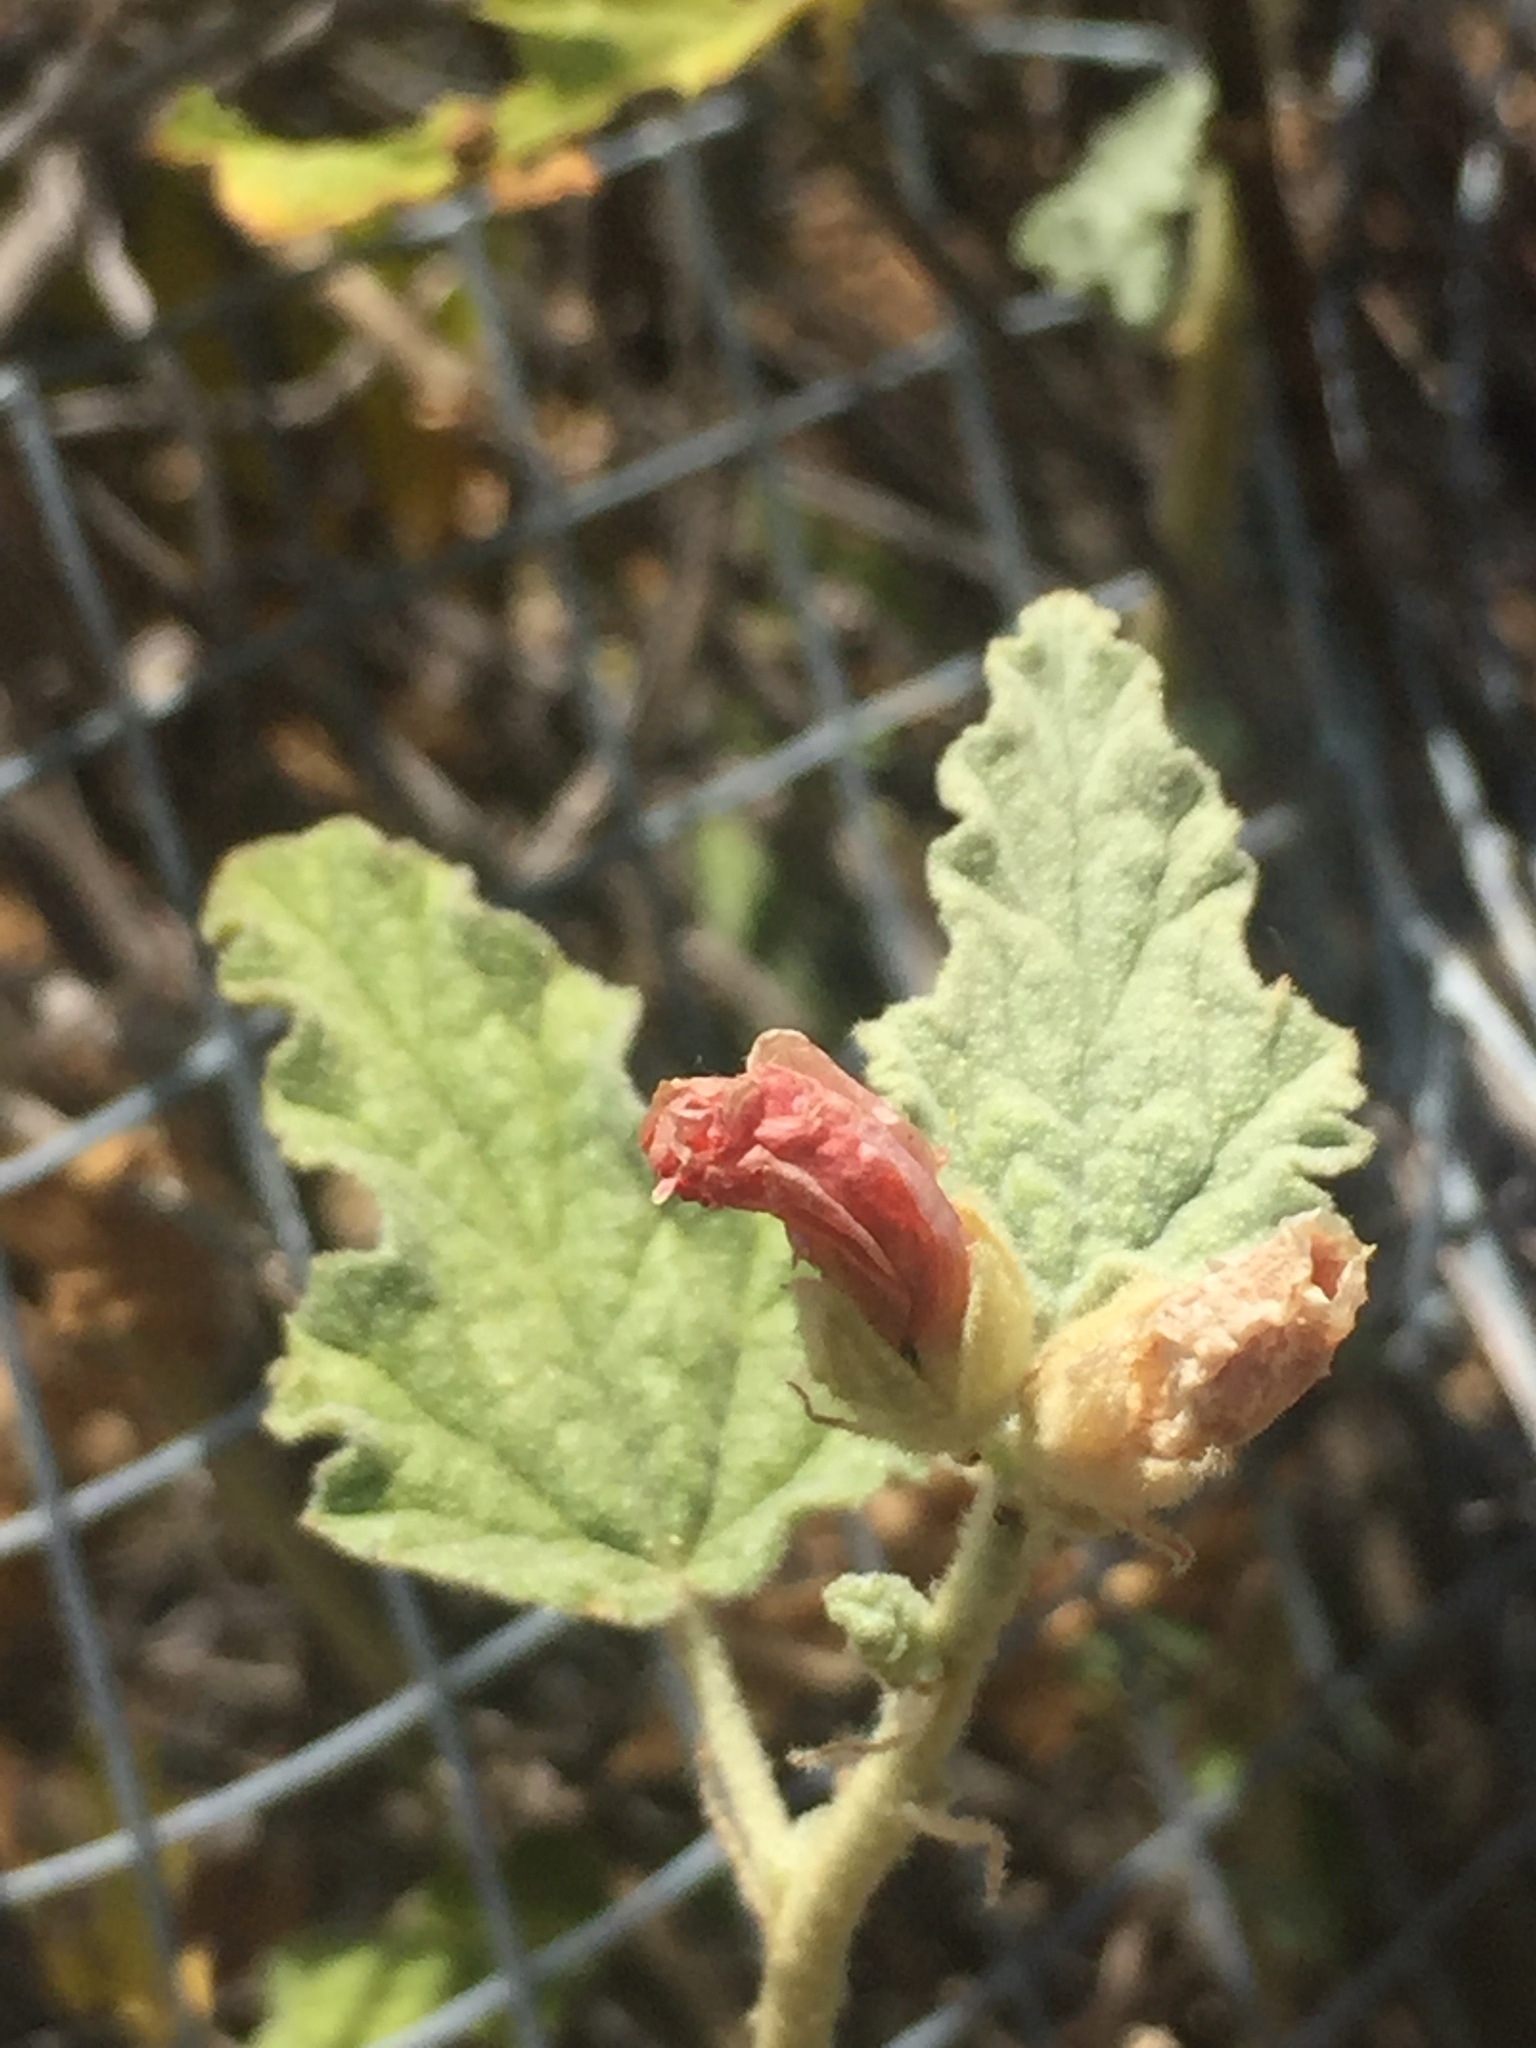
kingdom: Plantae
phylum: Tracheophyta
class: Magnoliopsida
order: Malvales
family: Malvaceae
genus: Sphaeralcea
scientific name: Sphaeralcea ambigua
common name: Apricot globe-mallow
